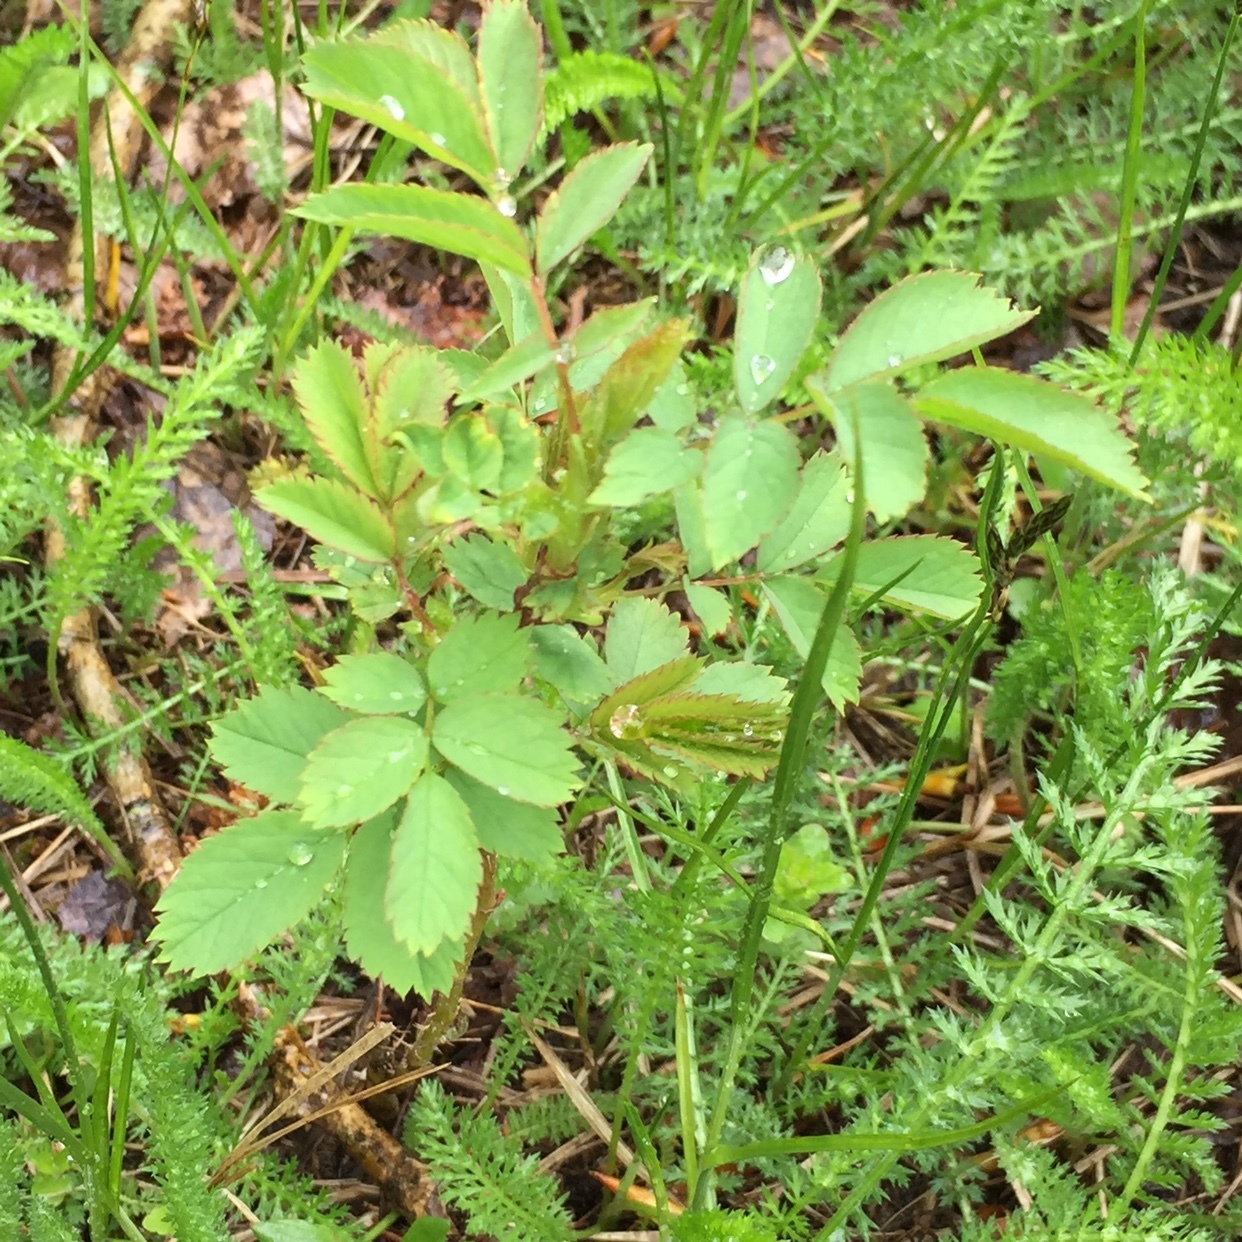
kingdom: Plantae
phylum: Tracheophyta
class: Magnoliopsida
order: Rosales
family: Rosaceae
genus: Sanguisorba
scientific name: Sanguisorba officinalis
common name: Great burnet
